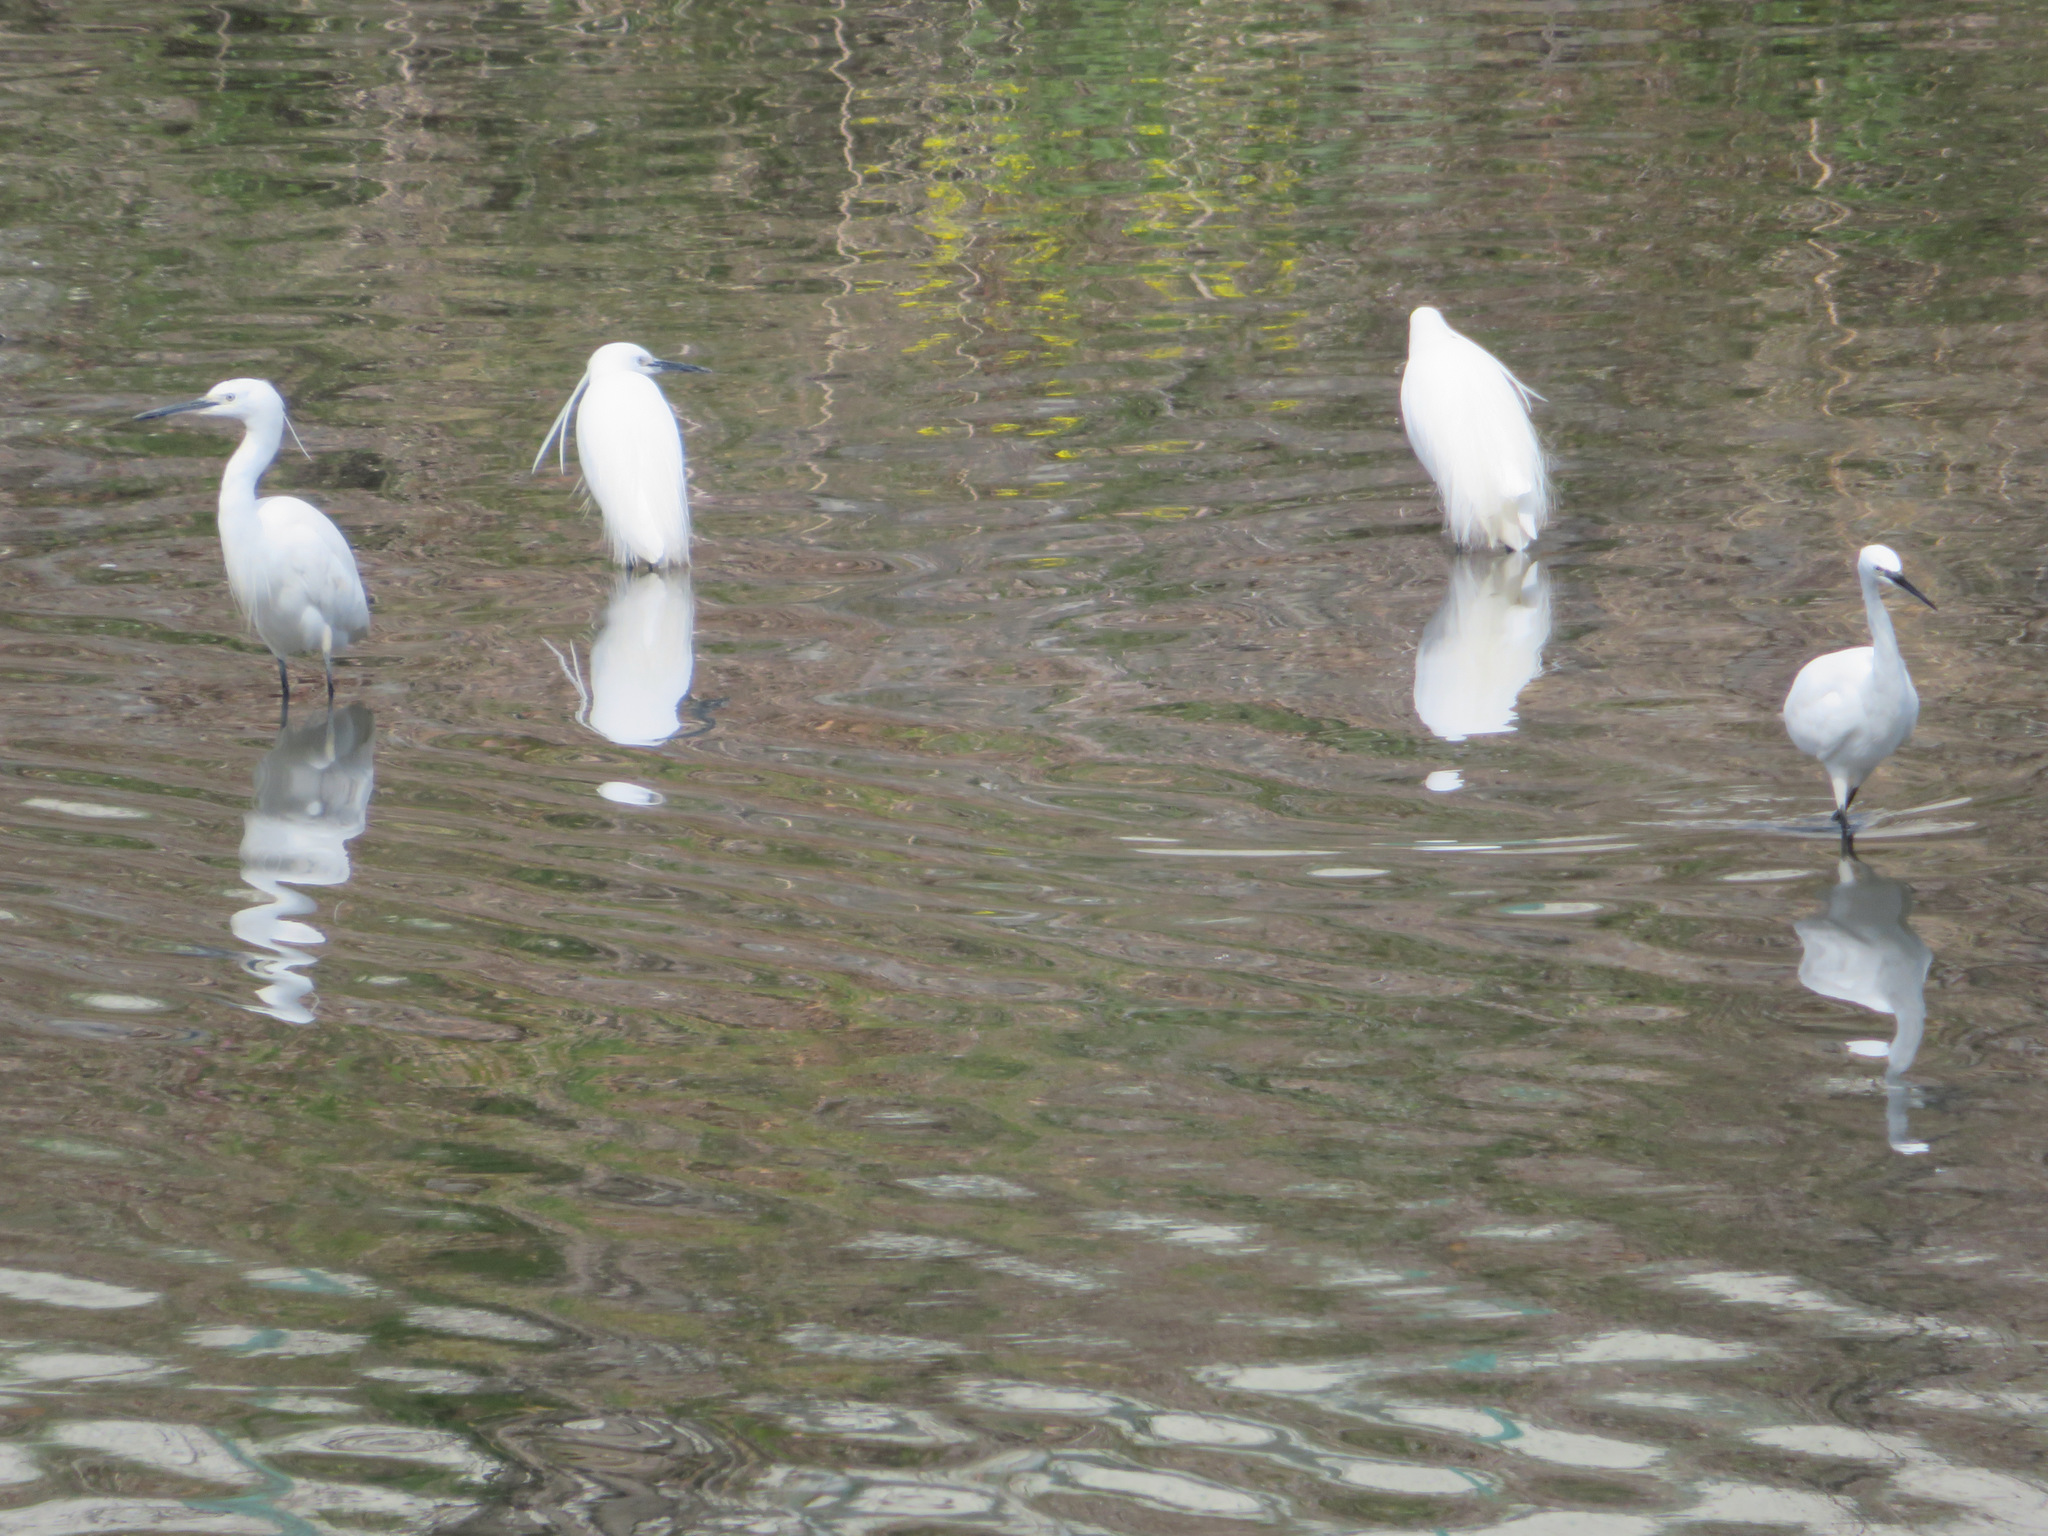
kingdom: Animalia
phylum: Chordata
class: Aves
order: Pelecaniformes
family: Ardeidae
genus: Egretta
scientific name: Egretta garzetta
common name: Little egret
